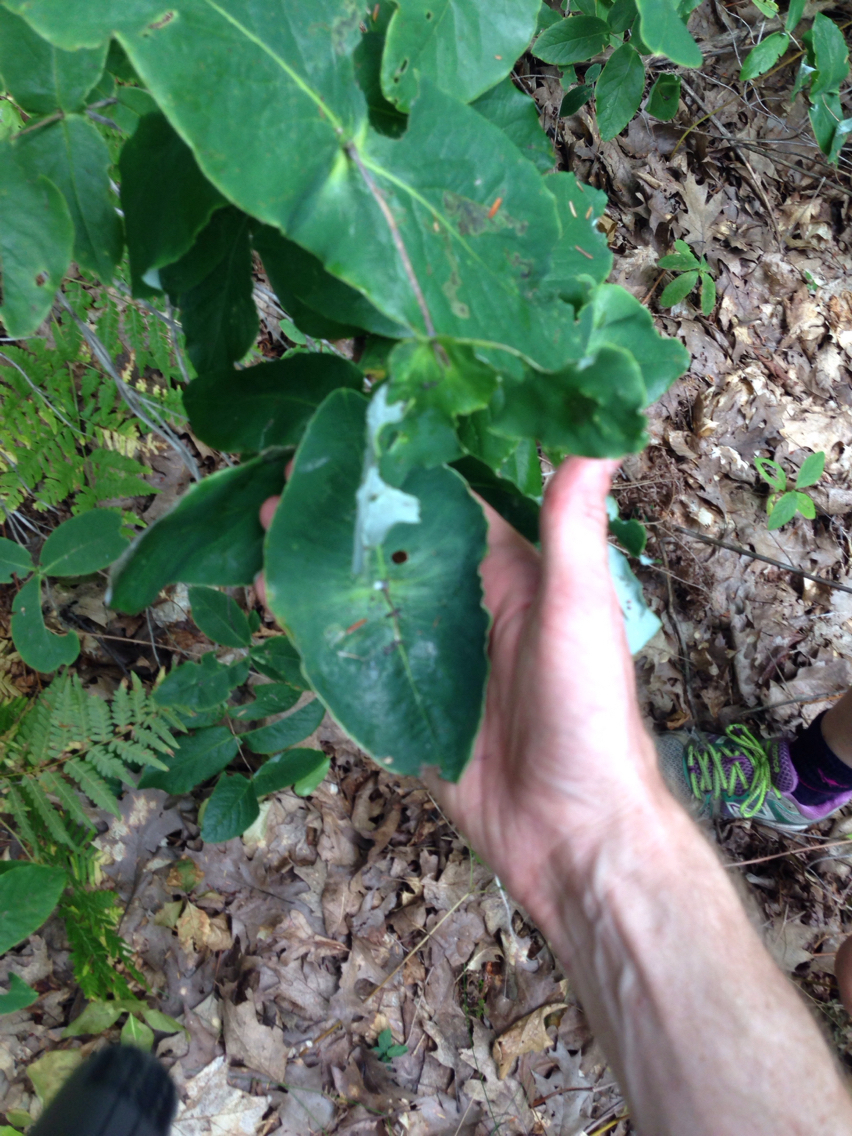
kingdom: Plantae
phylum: Tracheophyta
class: Magnoliopsida
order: Dipsacales
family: Caprifoliaceae
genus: Lonicera
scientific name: Lonicera dioica
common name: Limber honeysuckle
